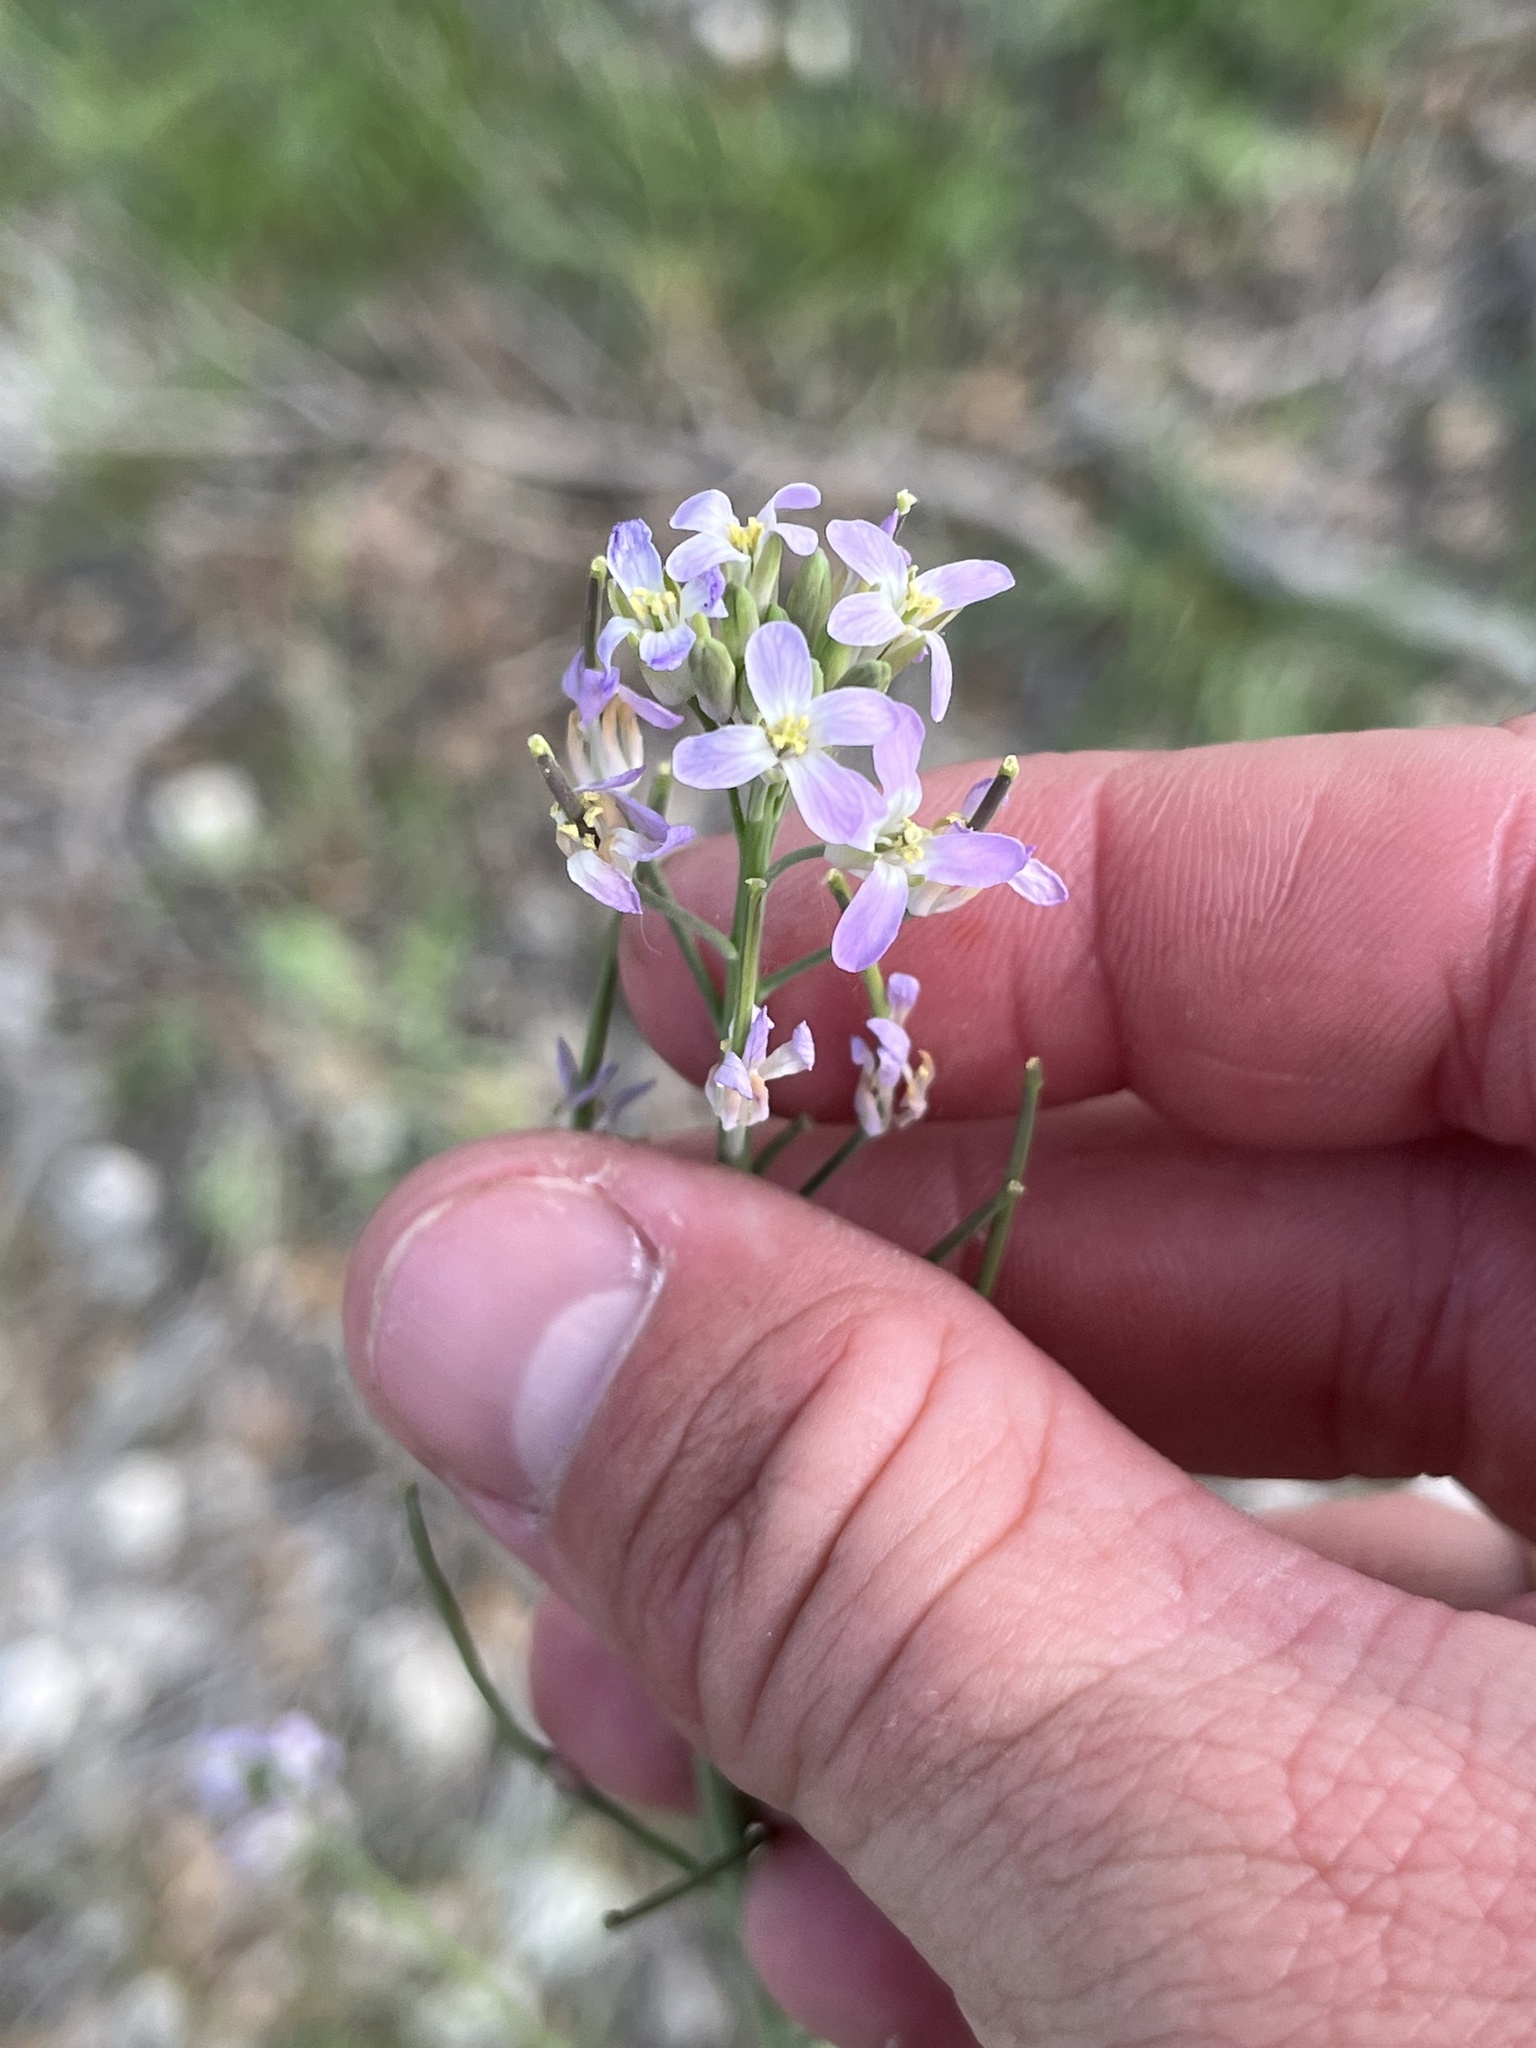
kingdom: Plantae
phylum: Tracheophyta
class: Magnoliopsida
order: Brassicales
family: Brassicaceae
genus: Streptanthus
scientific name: Streptanthus petiolaris
